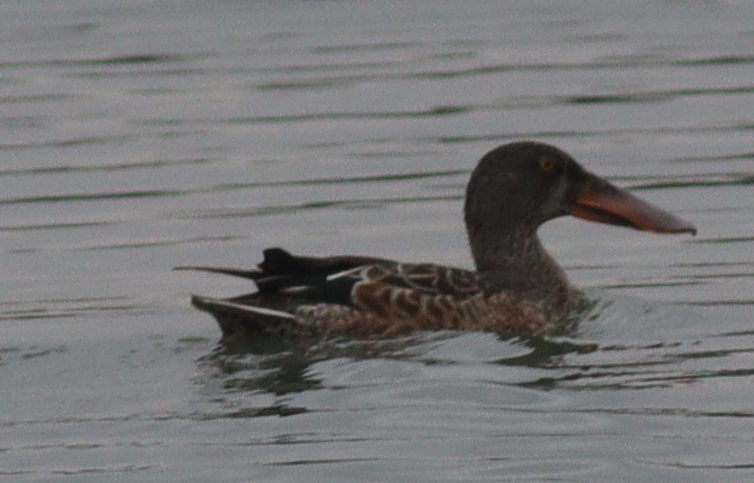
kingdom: Animalia
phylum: Chordata
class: Aves
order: Anseriformes
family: Anatidae
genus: Spatula
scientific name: Spatula clypeata
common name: Northern shoveler
